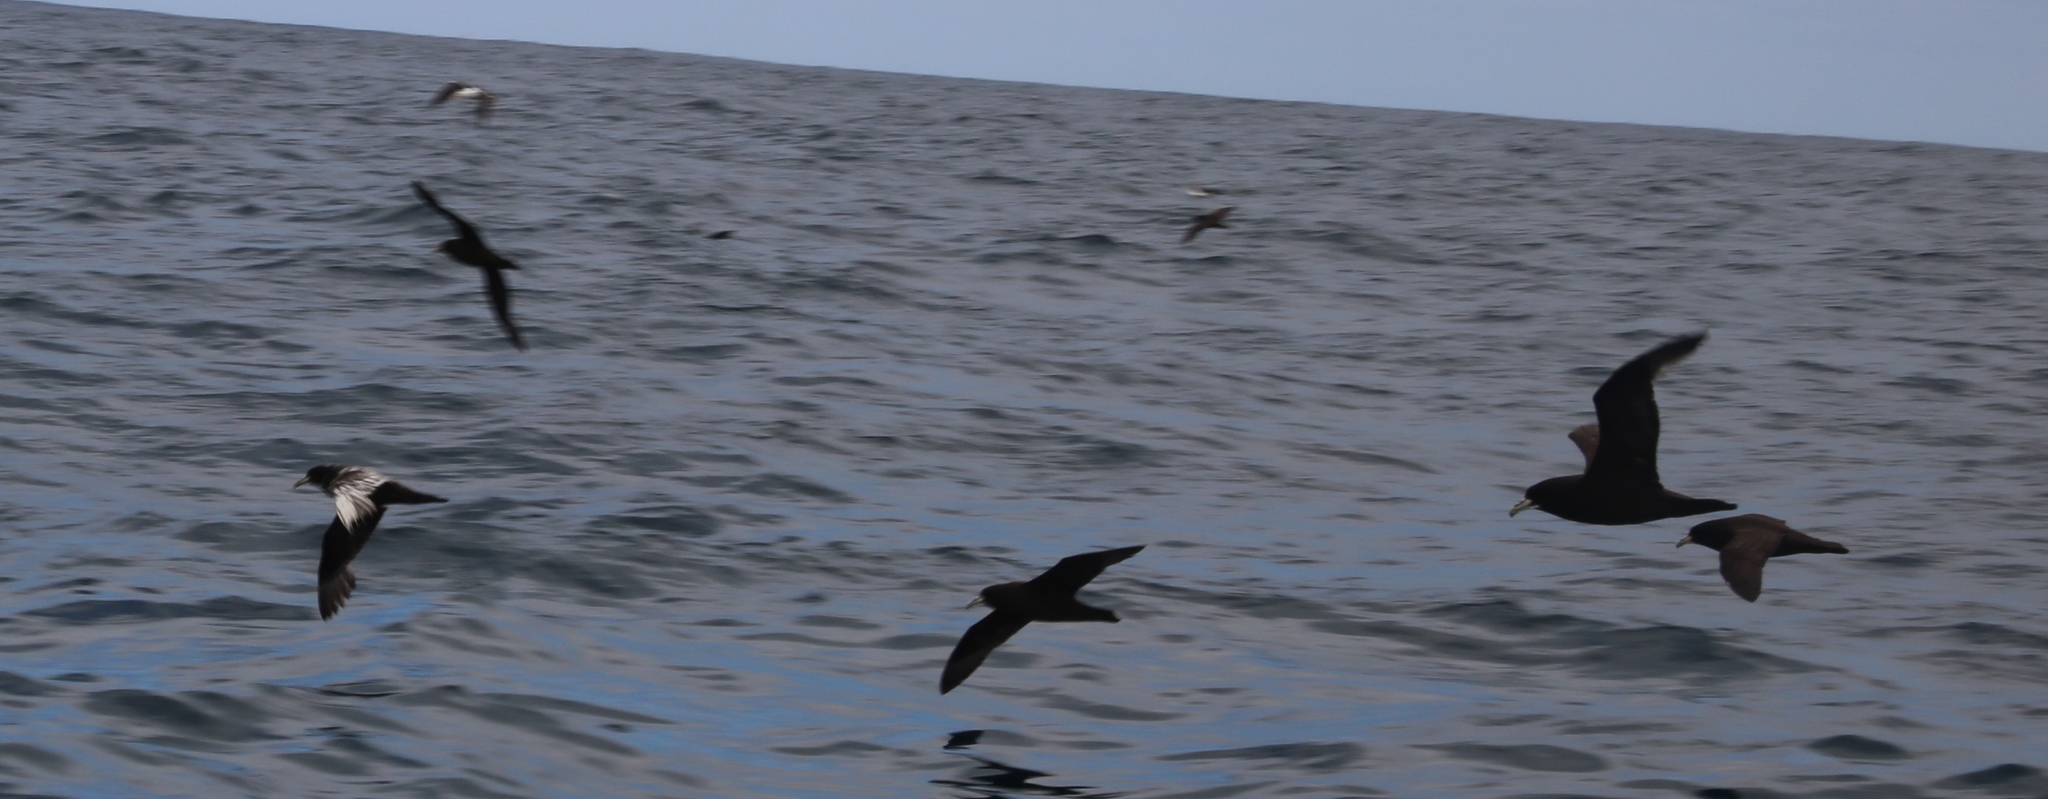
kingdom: Animalia
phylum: Chordata
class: Aves
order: Procellariiformes
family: Procellariidae
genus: Procellaria
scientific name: Procellaria aequinoctialis
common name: White-chinned petrel
